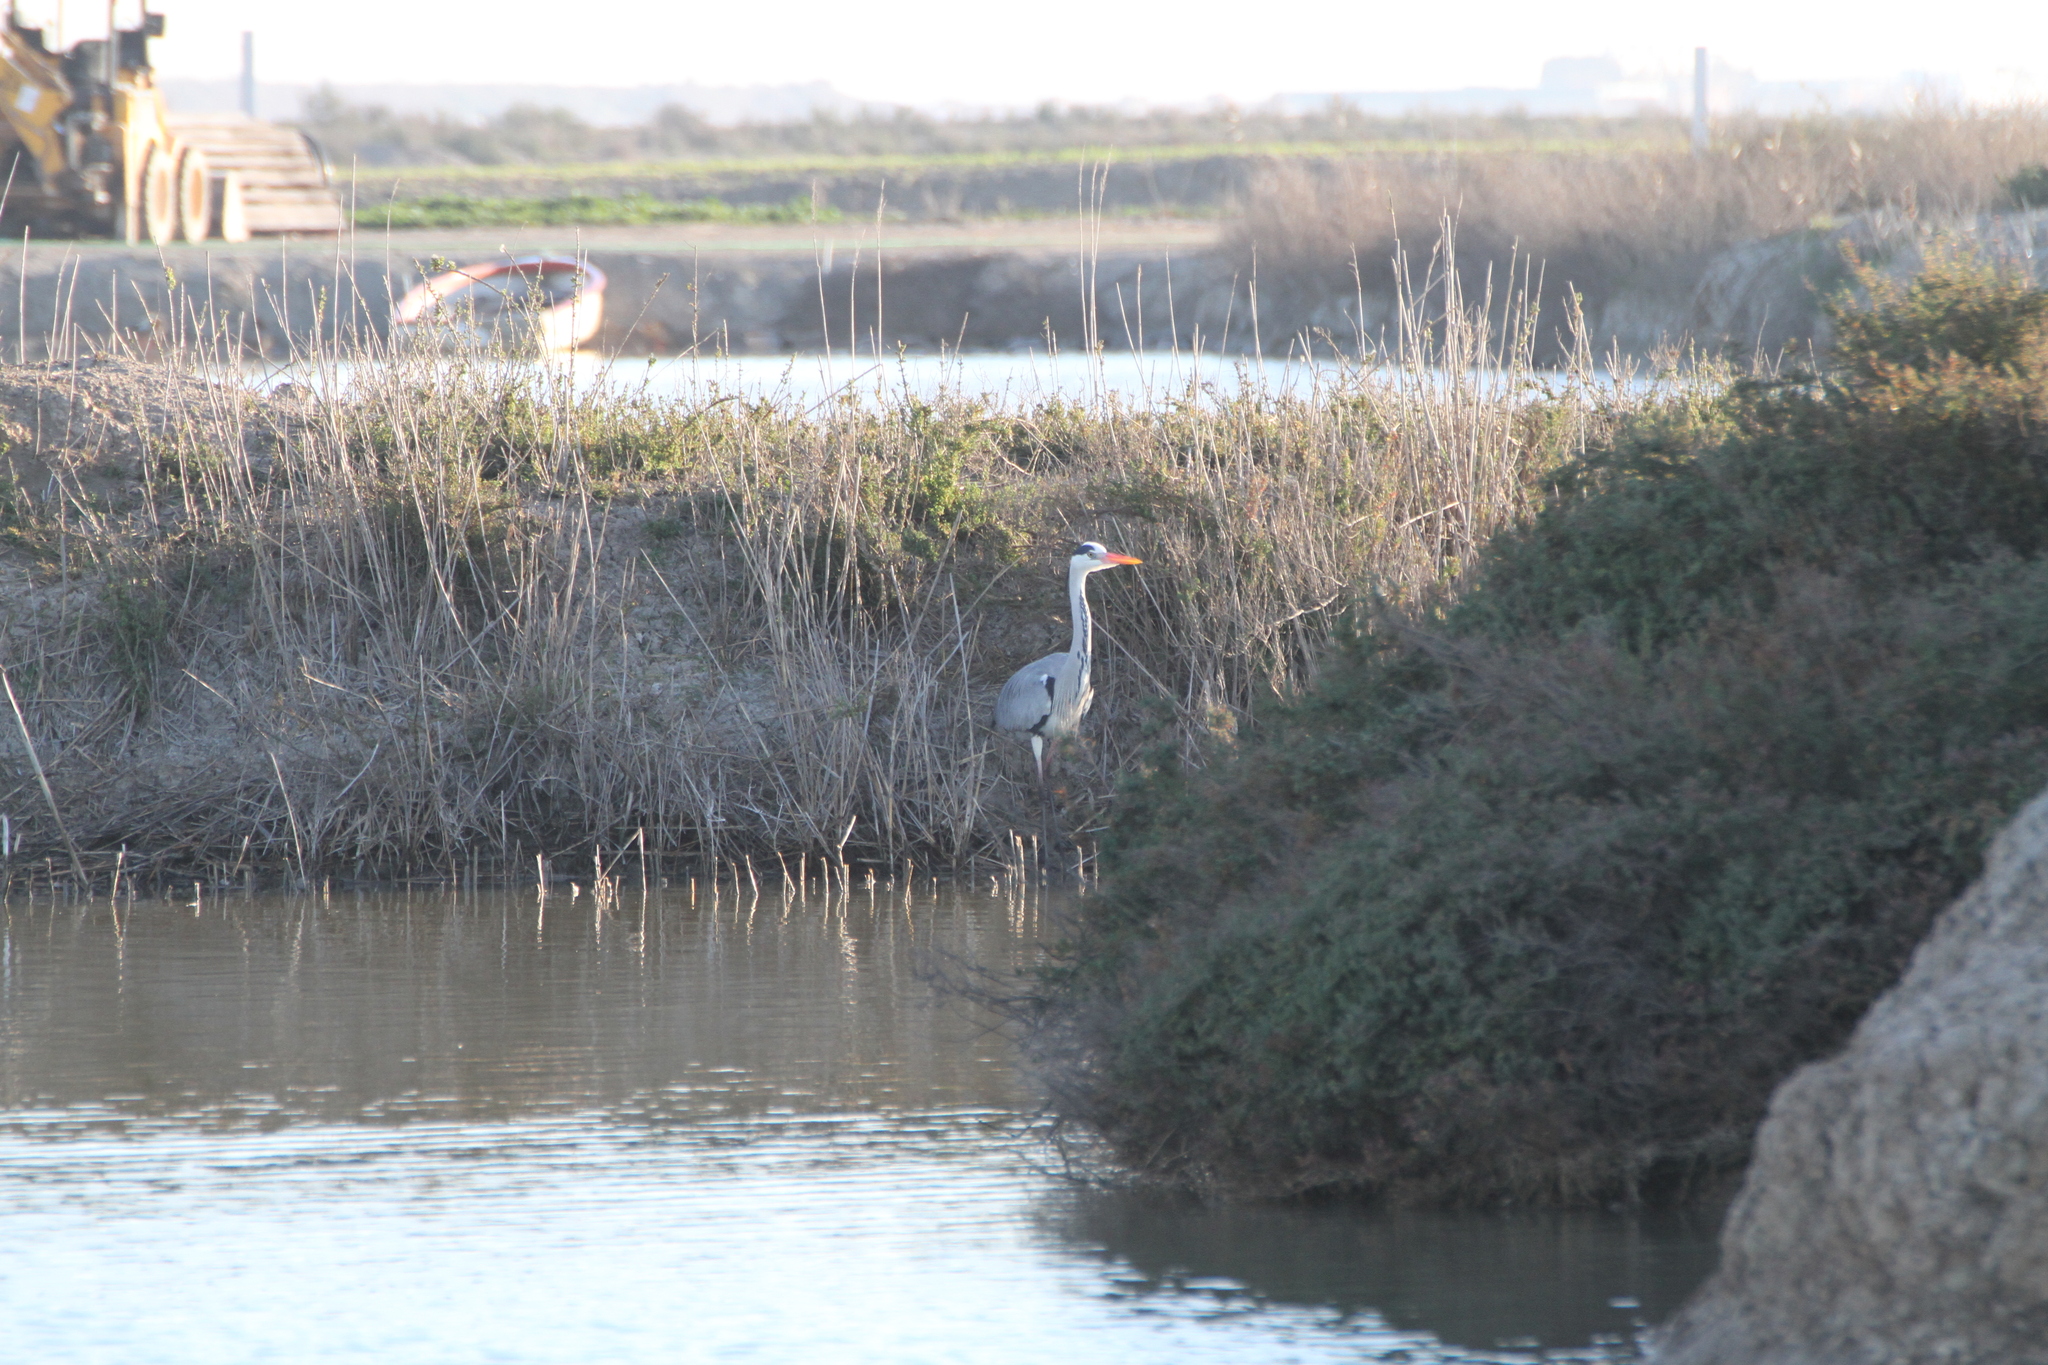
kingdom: Animalia
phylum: Chordata
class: Aves
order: Pelecaniformes
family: Ardeidae
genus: Ardea
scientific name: Ardea cinerea
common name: Grey heron
